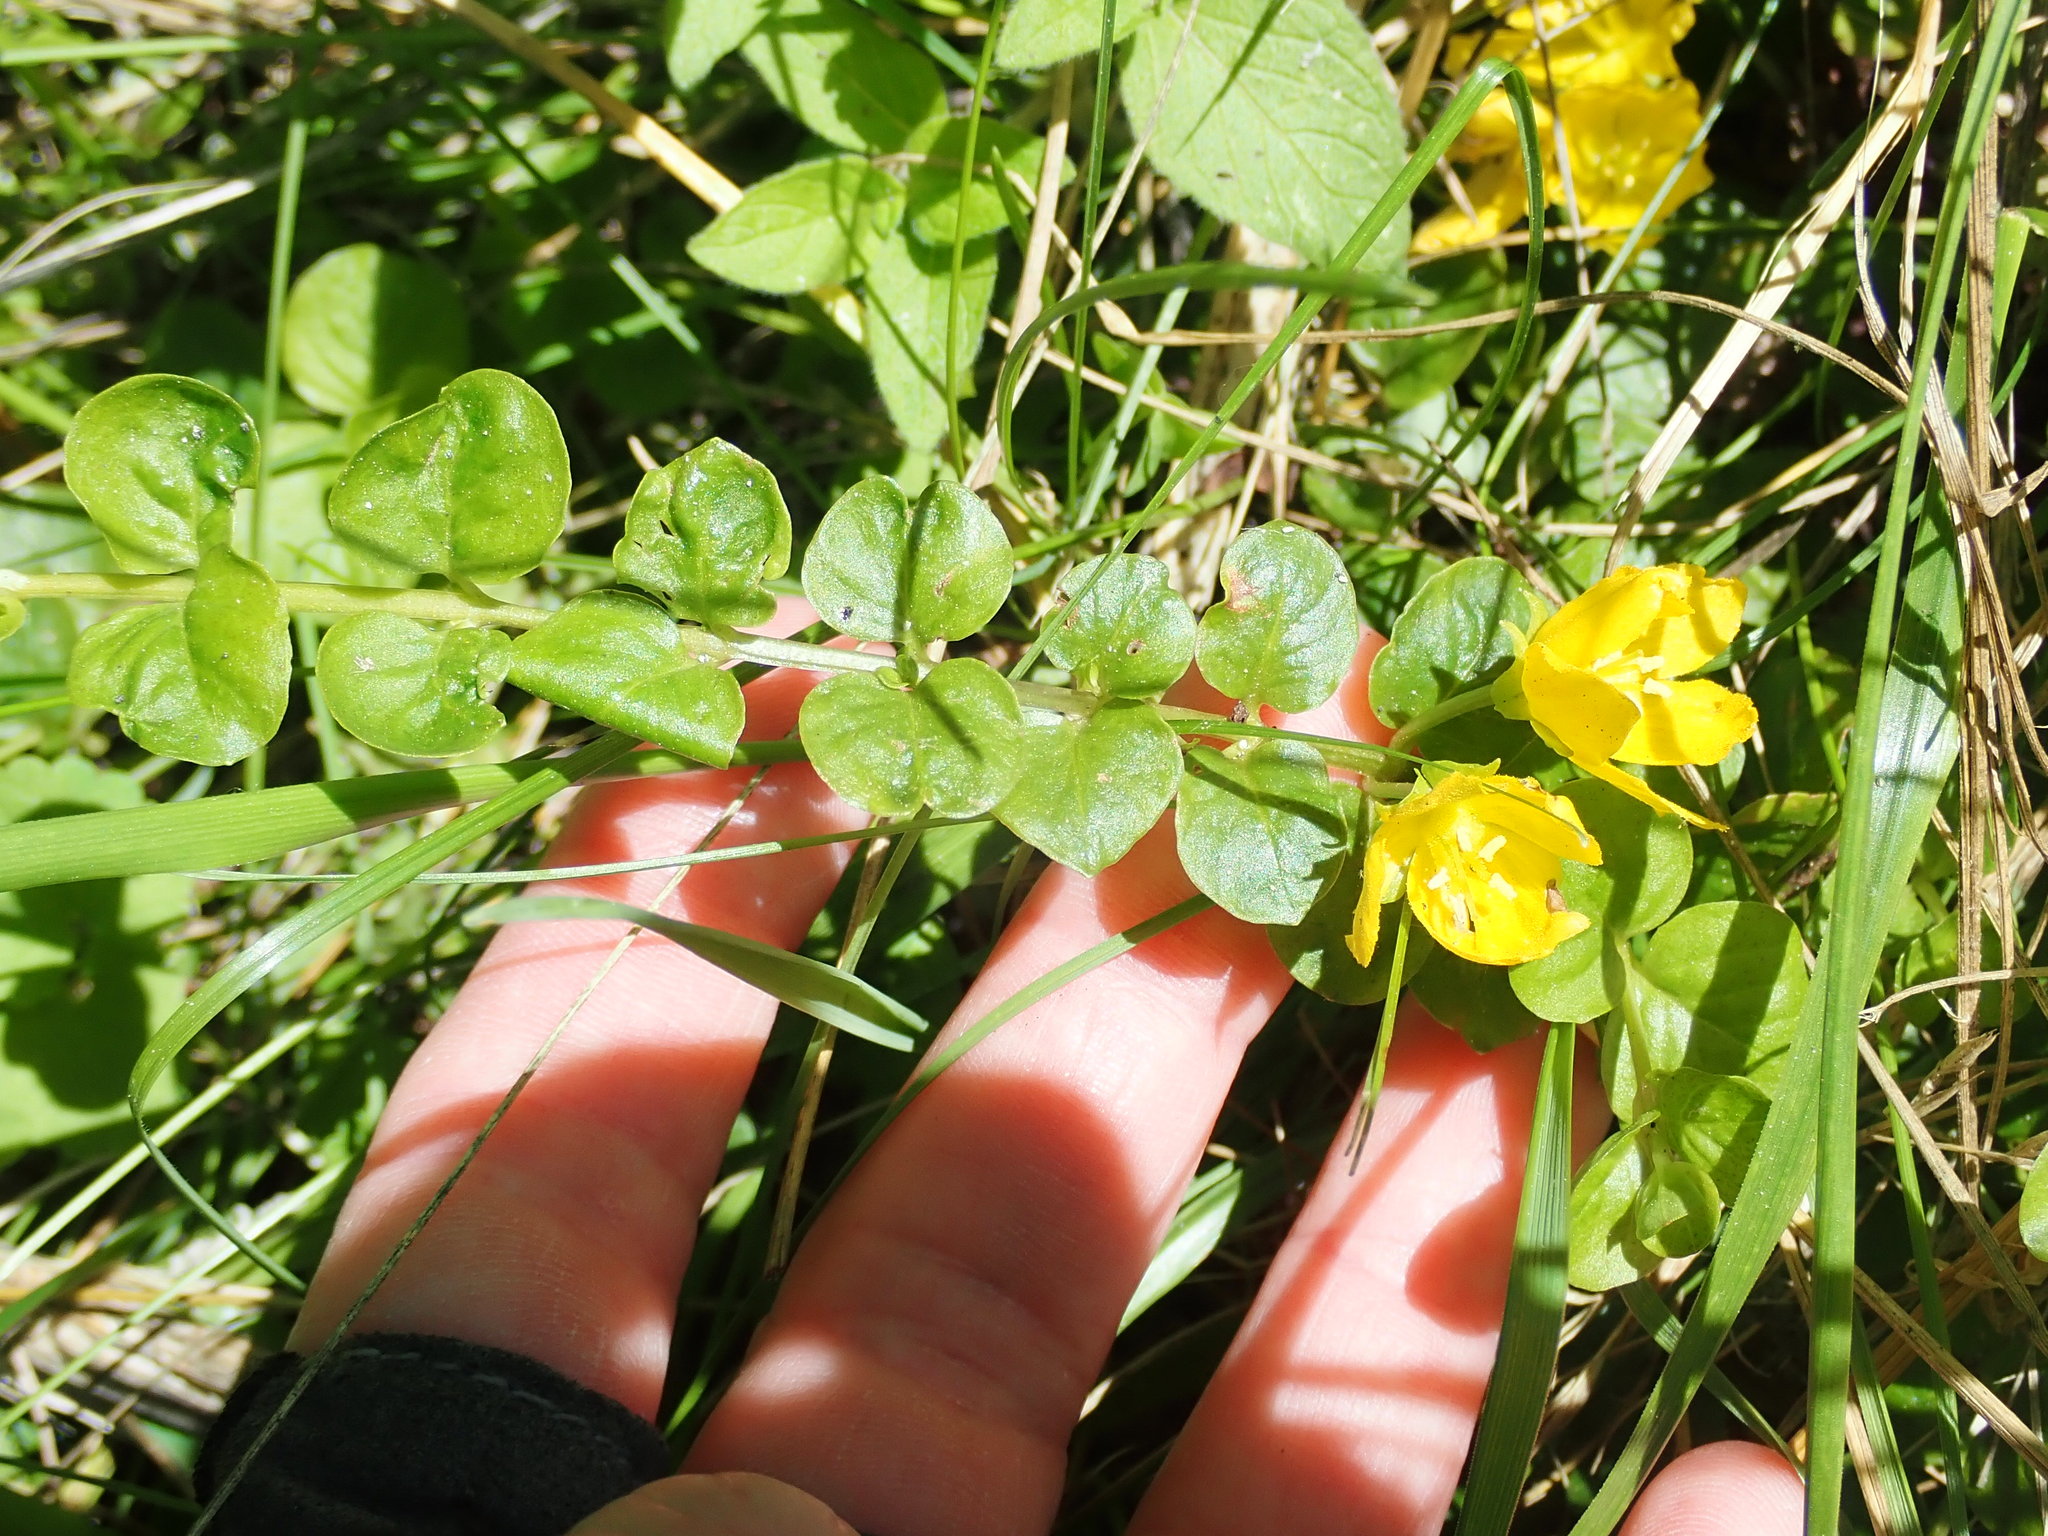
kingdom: Plantae
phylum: Tracheophyta
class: Magnoliopsida
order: Ericales
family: Primulaceae
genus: Lysimachia
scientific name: Lysimachia nummularia
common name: Moneywort
